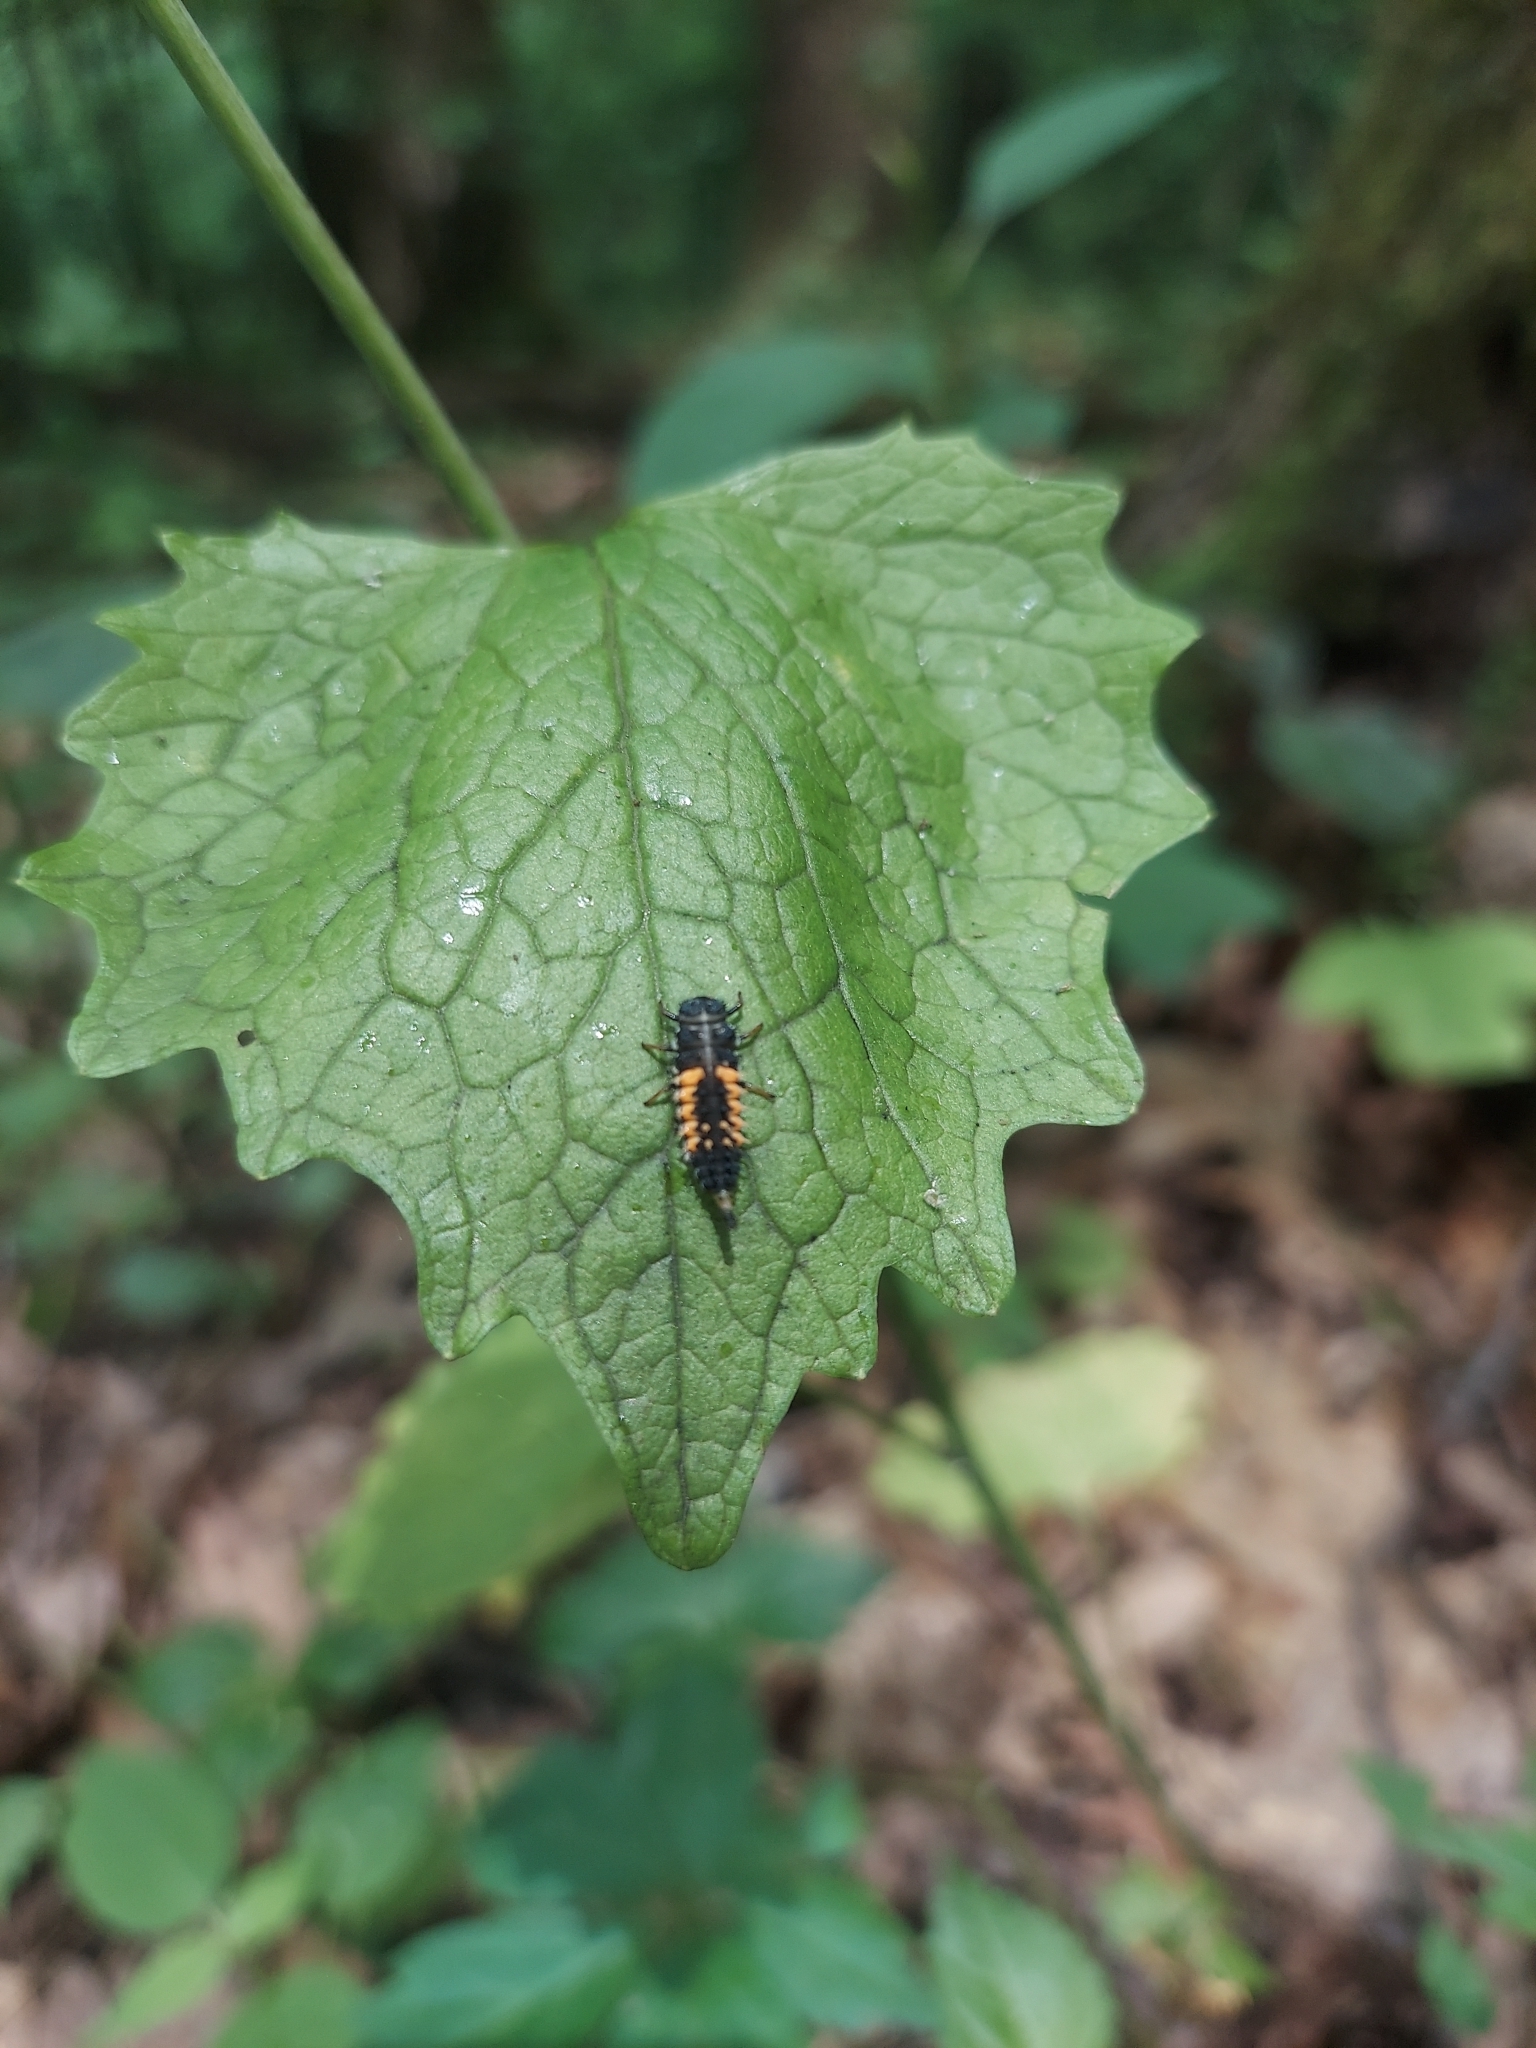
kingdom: Animalia
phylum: Arthropoda
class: Insecta
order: Coleoptera
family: Coccinellidae
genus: Harmonia
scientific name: Harmonia axyridis
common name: Harlequin ladybird
